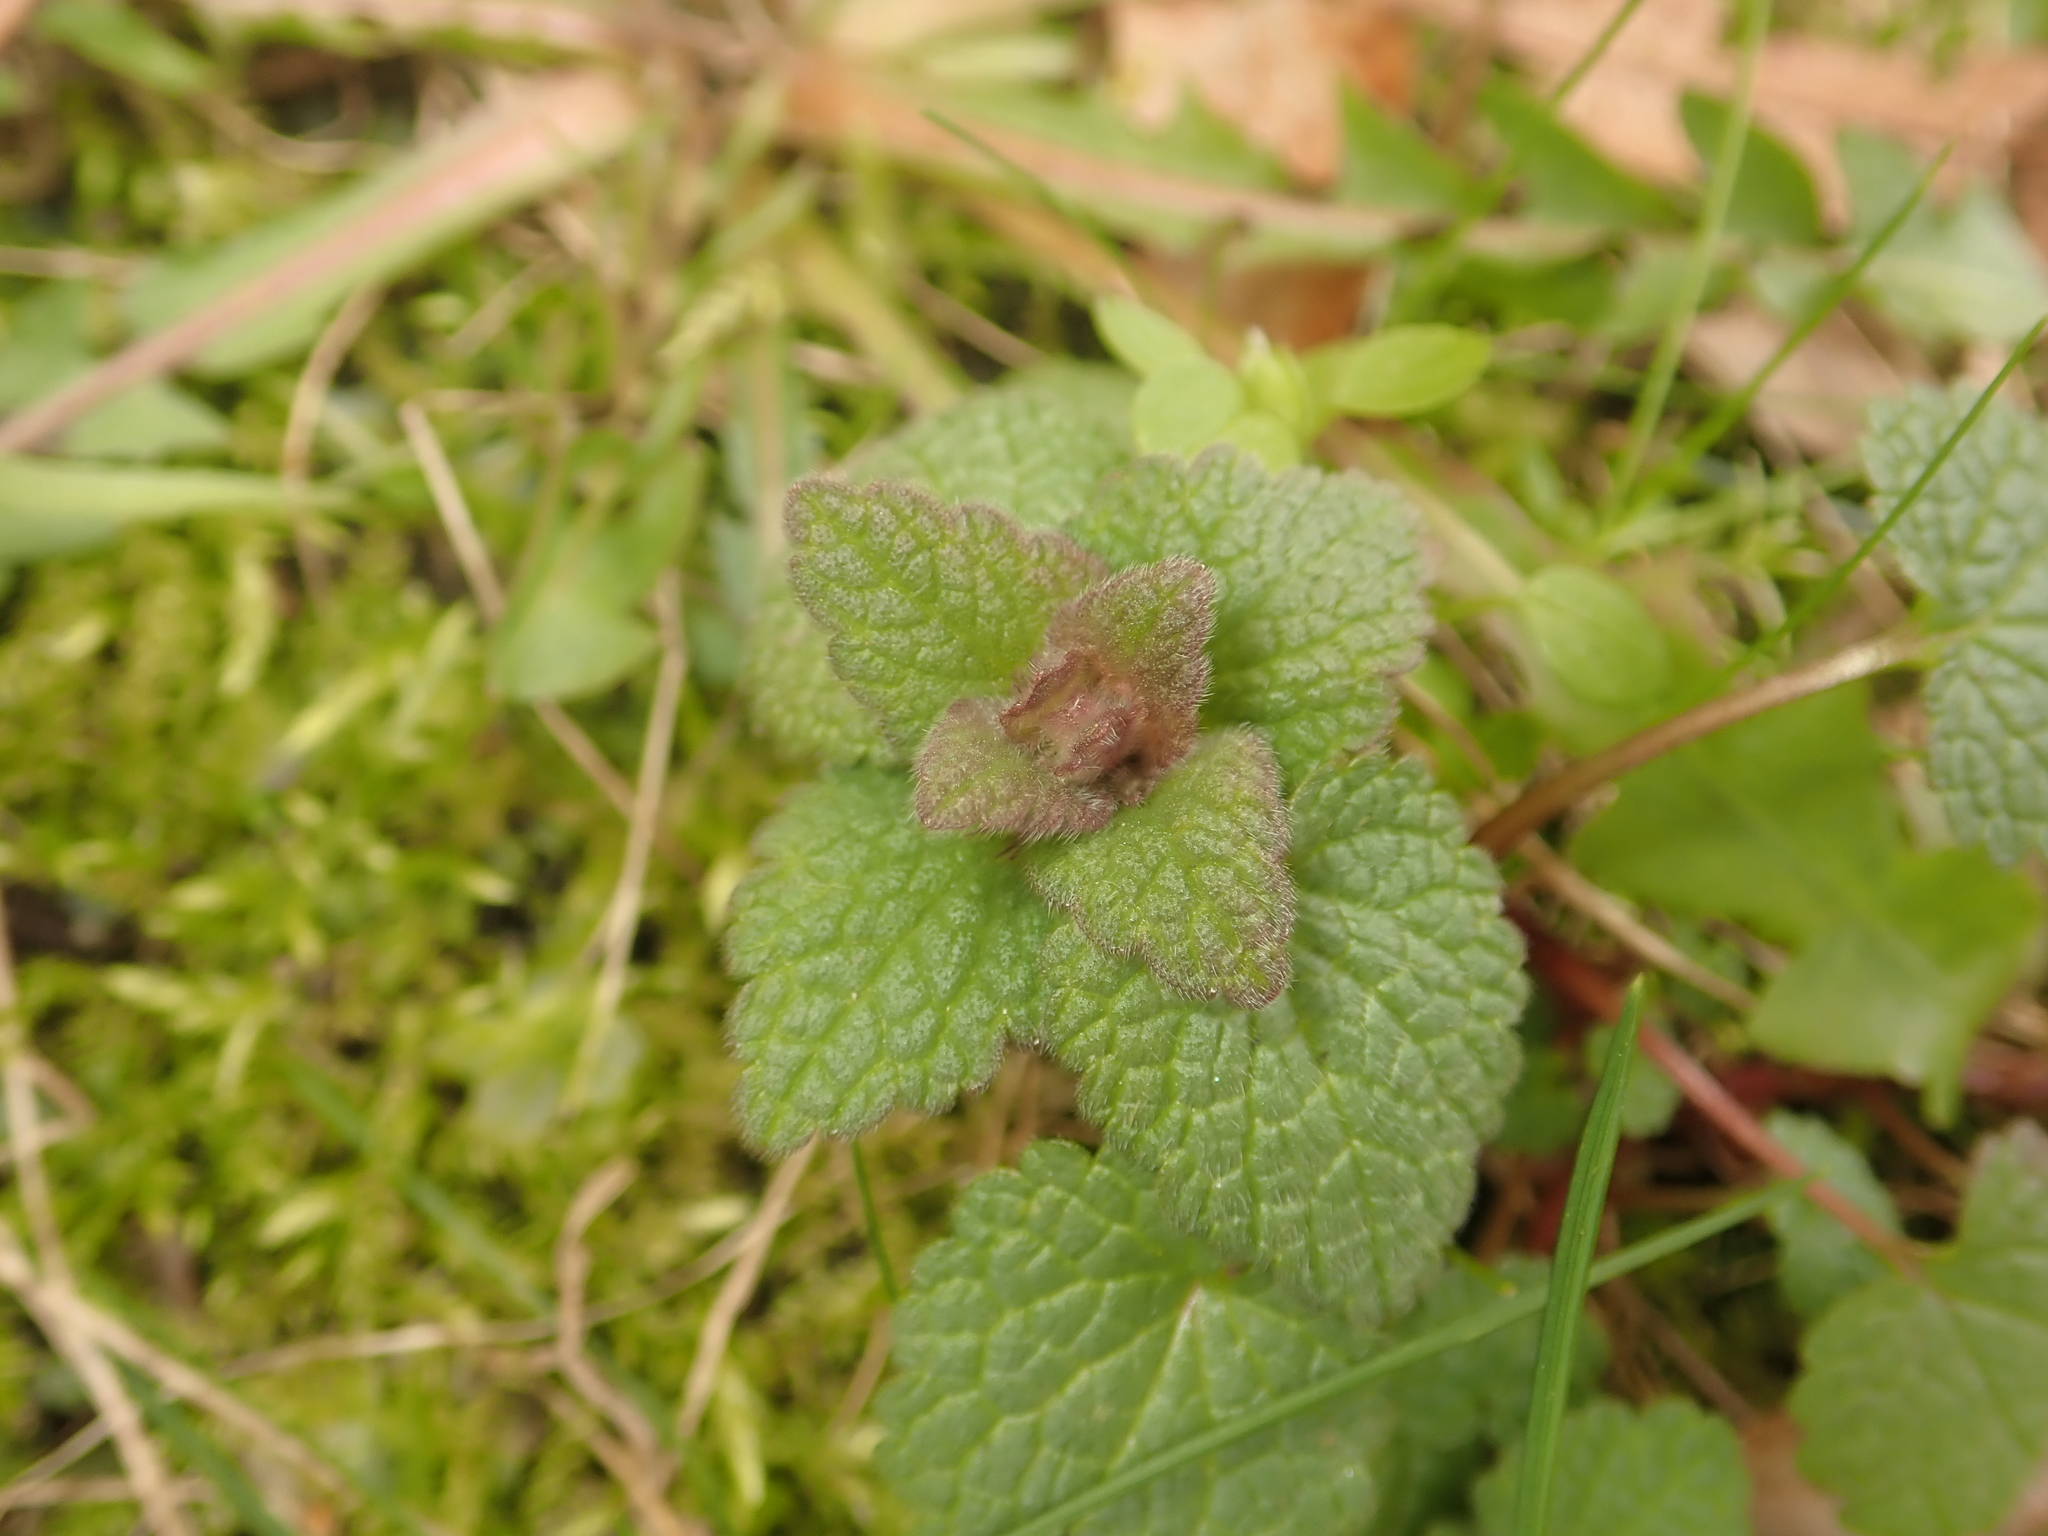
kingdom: Plantae
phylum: Tracheophyta
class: Magnoliopsida
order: Lamiales
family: Lamiaceae
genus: Lamium
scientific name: Lamium purpureum
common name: Red dead-nettle
